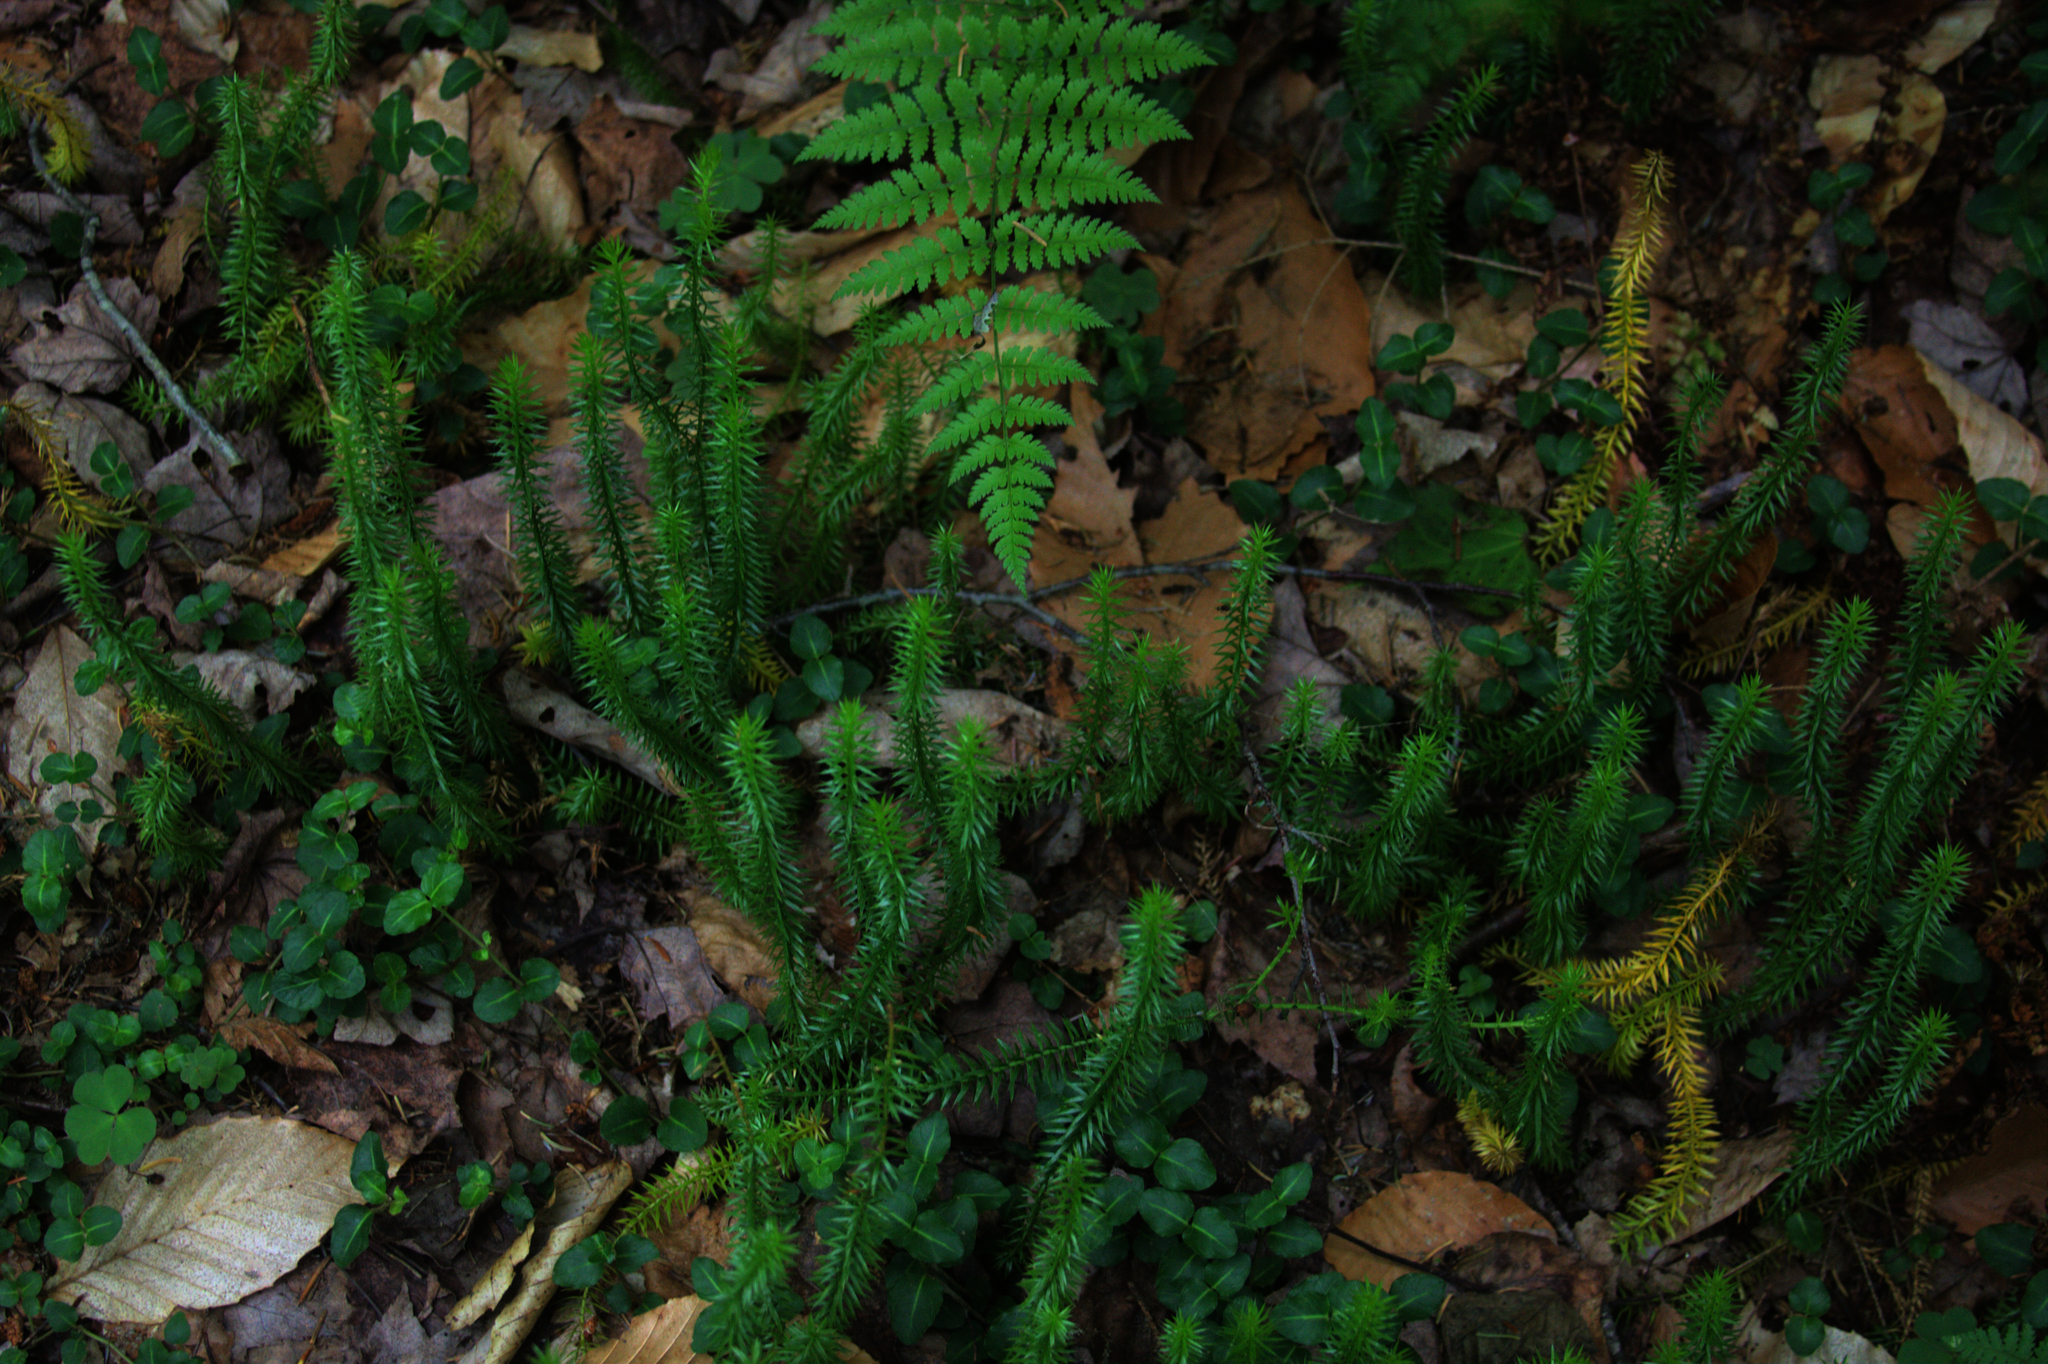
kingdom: Plantae
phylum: Tracheophyta
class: Lycopodiopsida
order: Lycopodiales
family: Lycopodiaceae
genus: Spinulum
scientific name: Spinulum annotinum
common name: Interrupted club-moss
